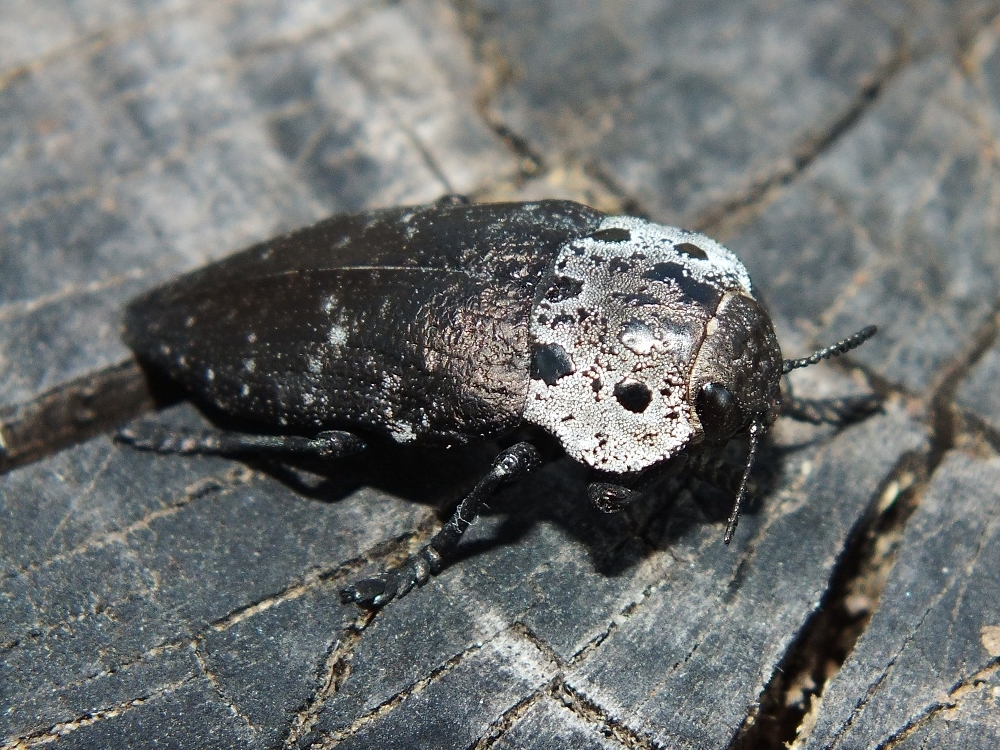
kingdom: Animalia
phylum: Arthropoda
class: Insecta
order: Coleoptera
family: Buprestidae
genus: Capnodis
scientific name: Capnodis tenebrionis
